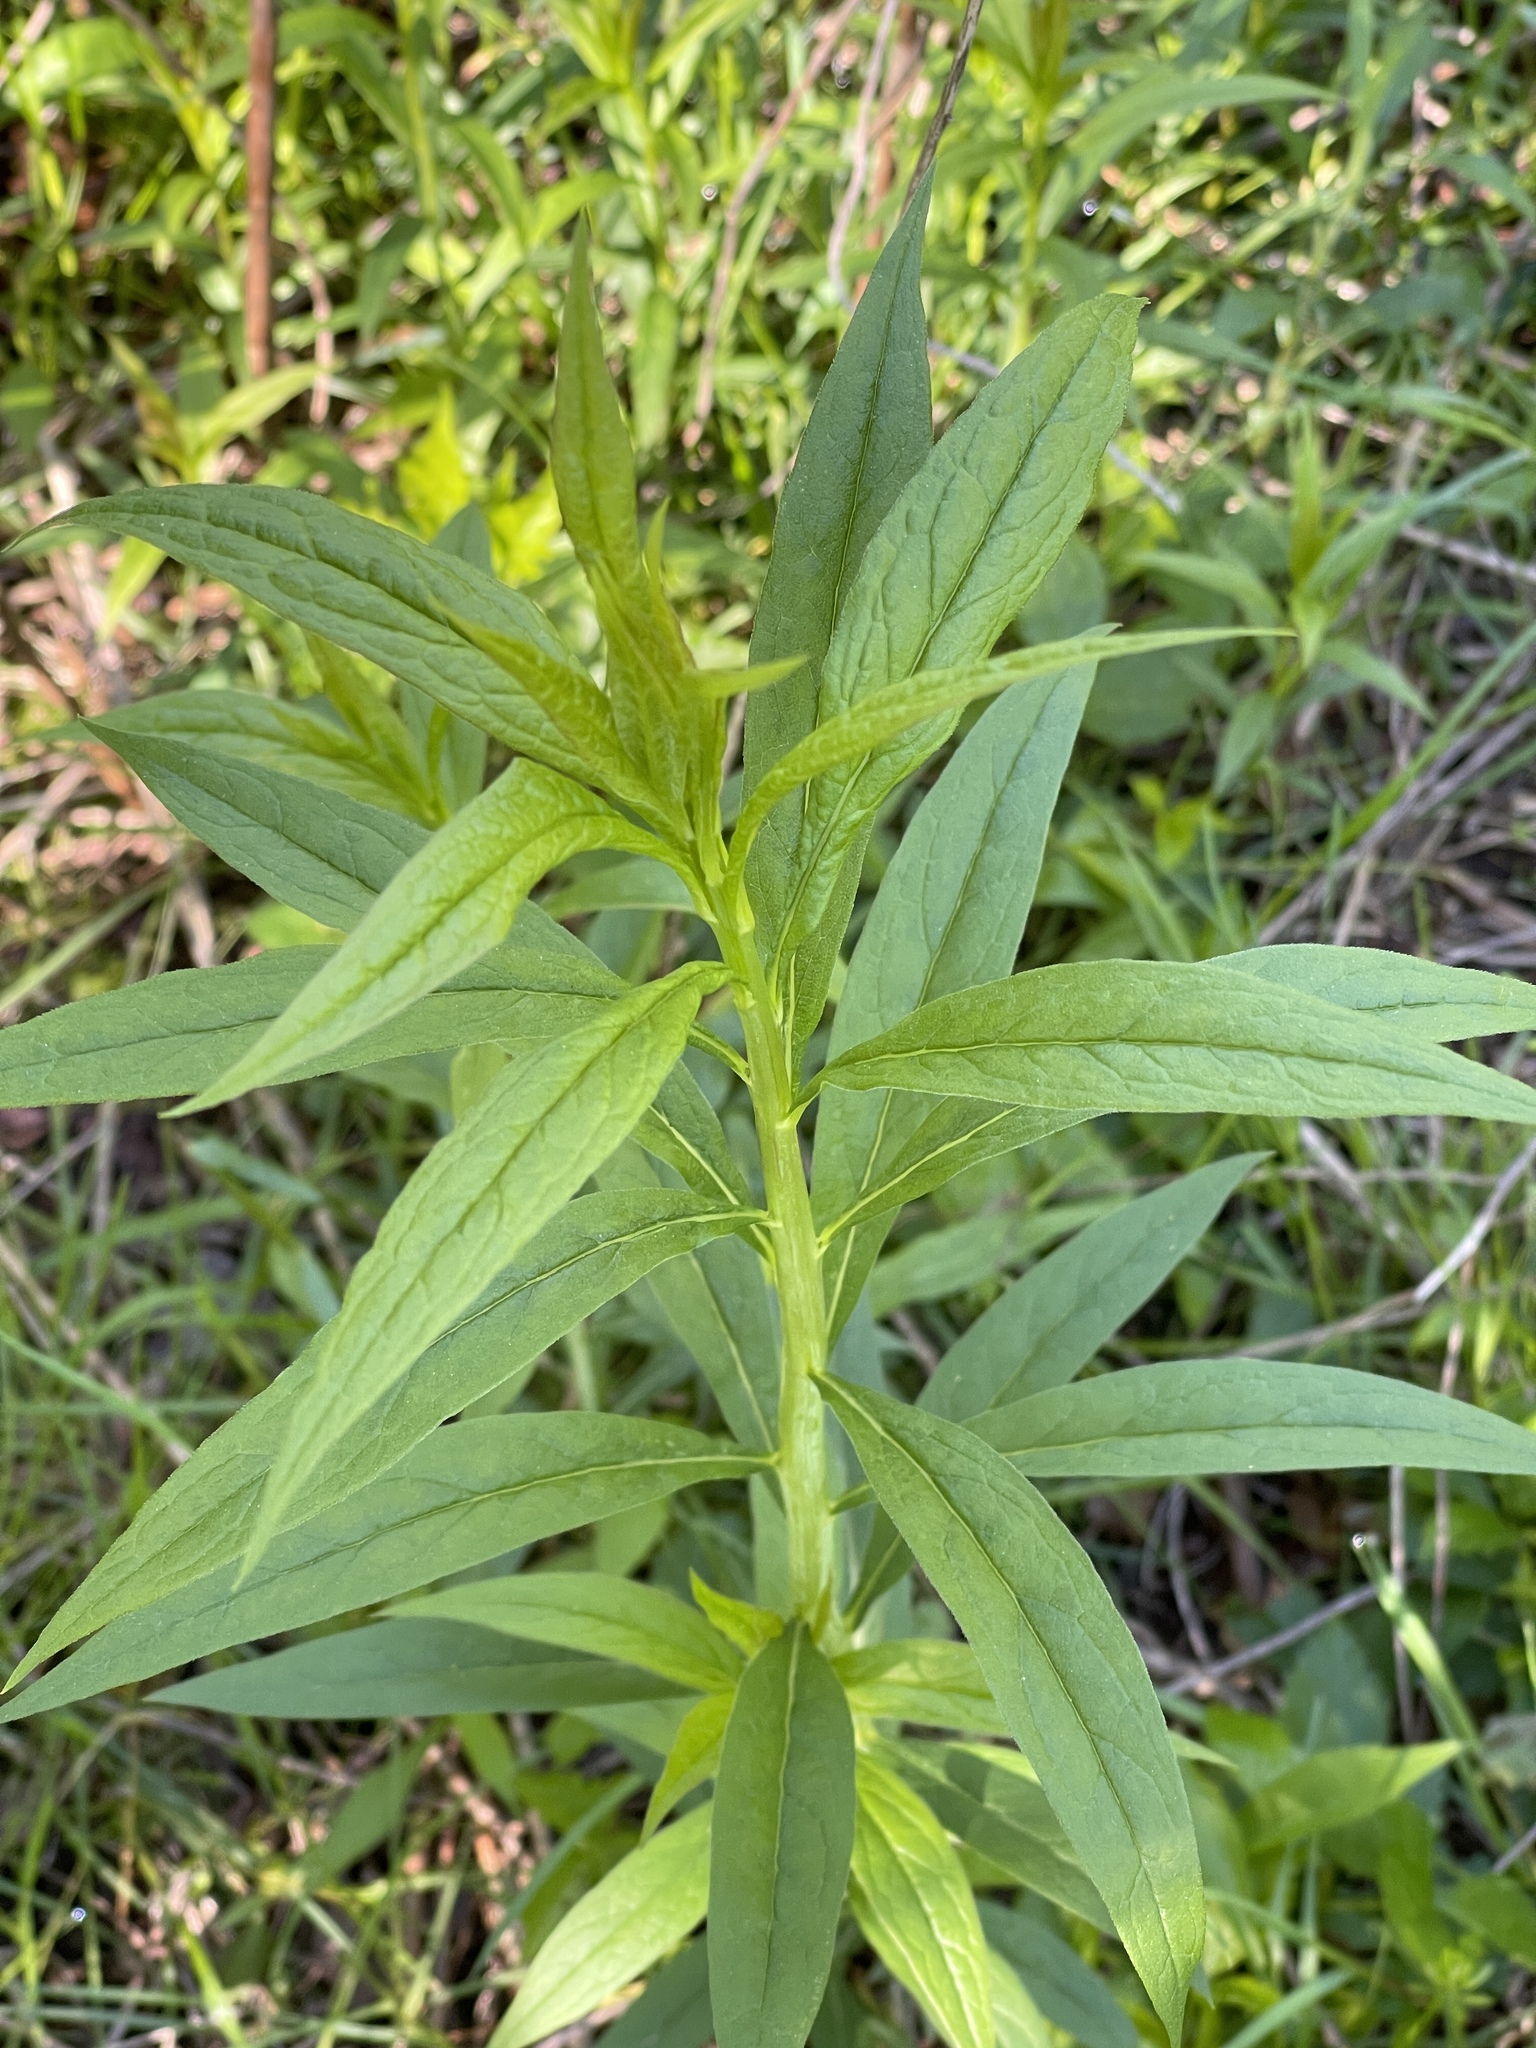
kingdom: Plantae
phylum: Tracheophyta
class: Magnoliopsida
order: Asterales
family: Asteraceae
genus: Doellingeria
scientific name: Doellingeria umbellata
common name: Flat-top white aster
